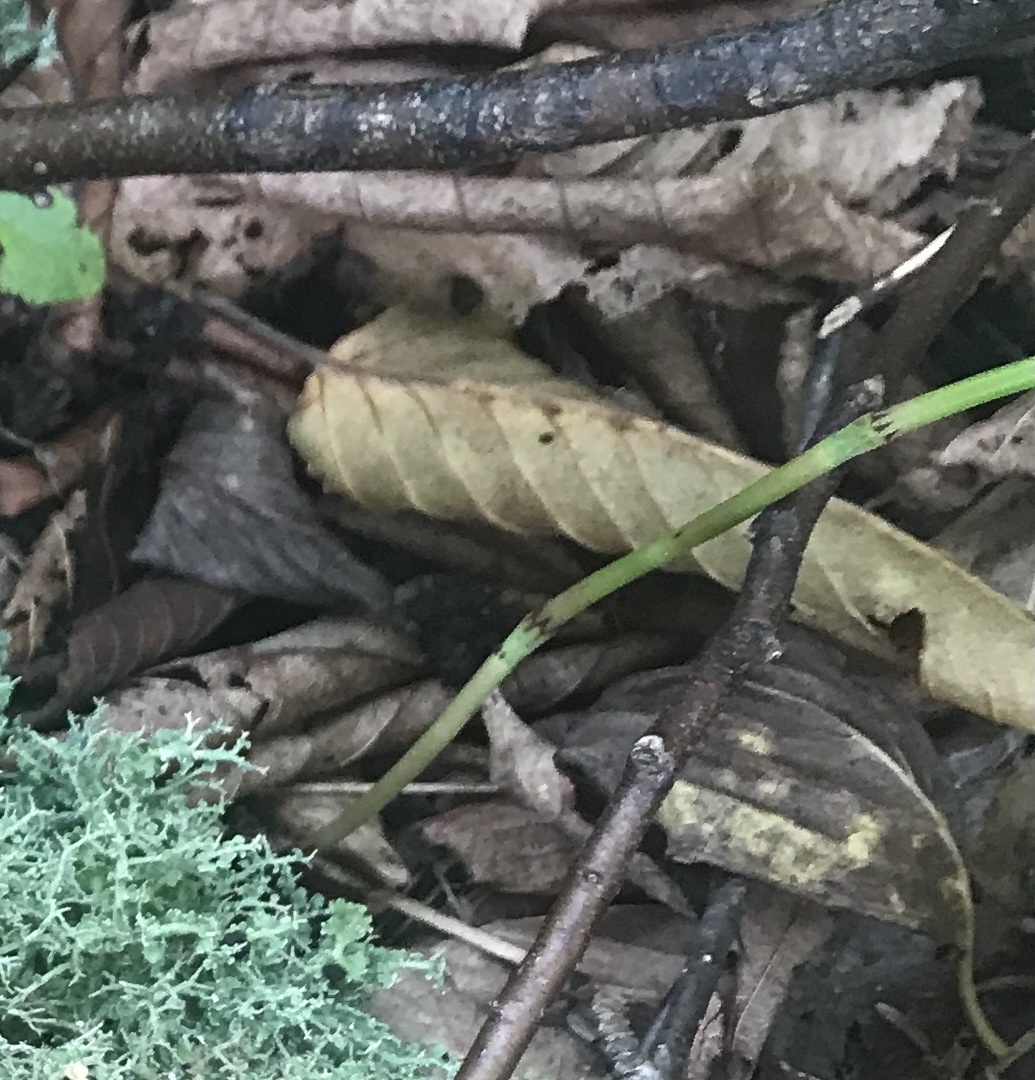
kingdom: Plantae
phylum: Tracheophyta
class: Polypodiopsida
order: Equisetales
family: Equisetaceae
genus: Equisetum
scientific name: Equisetum scirpoides
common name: Delicate horsetail
